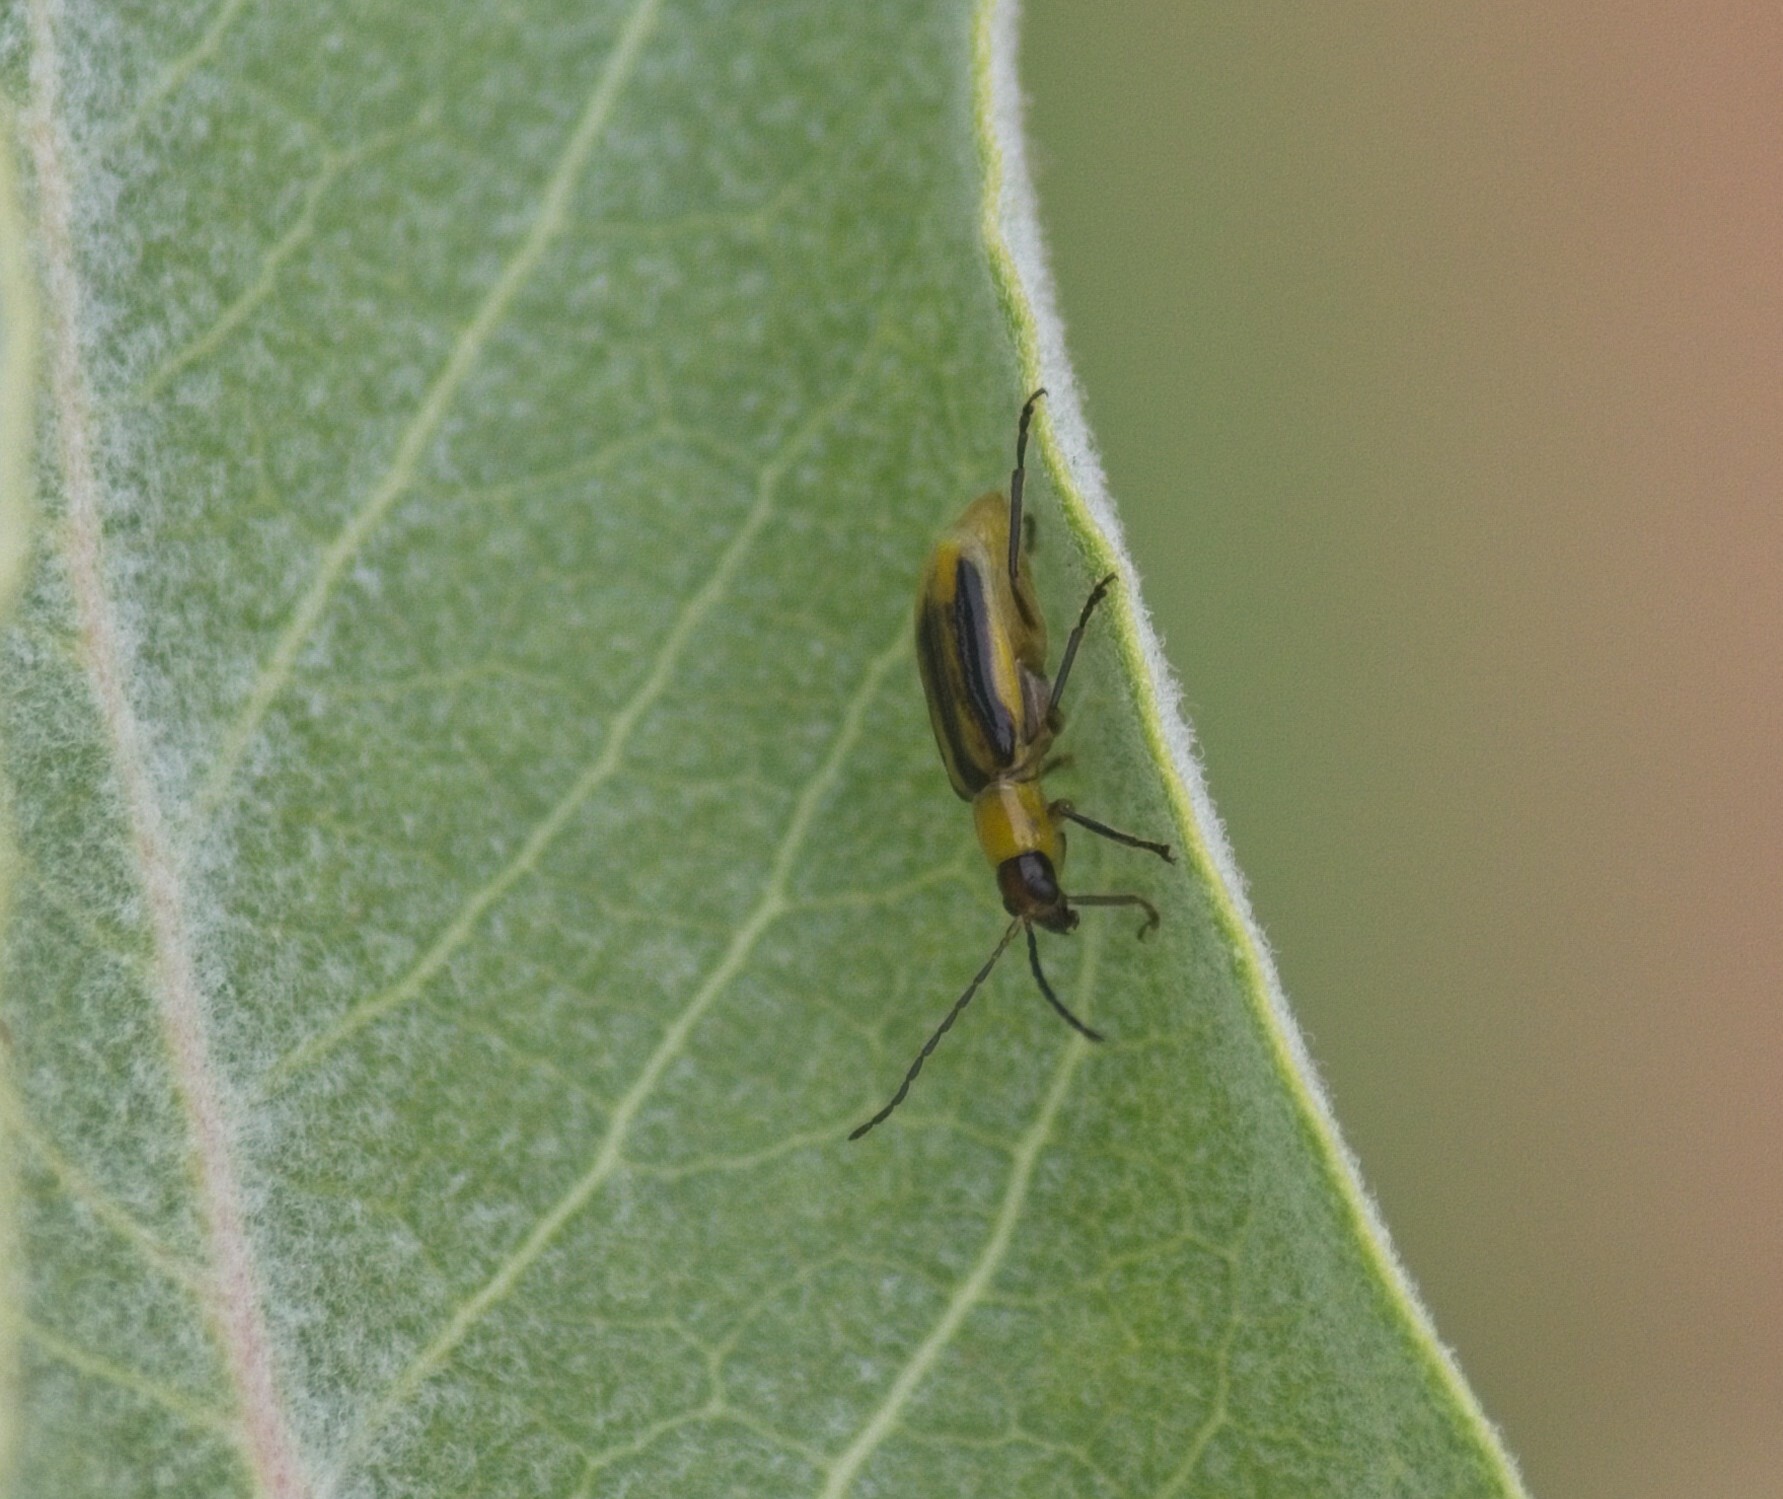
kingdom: Animalia
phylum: Arthropoda
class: Insecta
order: Coleoptera
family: Chrysomelidae
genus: Diabrotica
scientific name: Diabrotica virgifera
